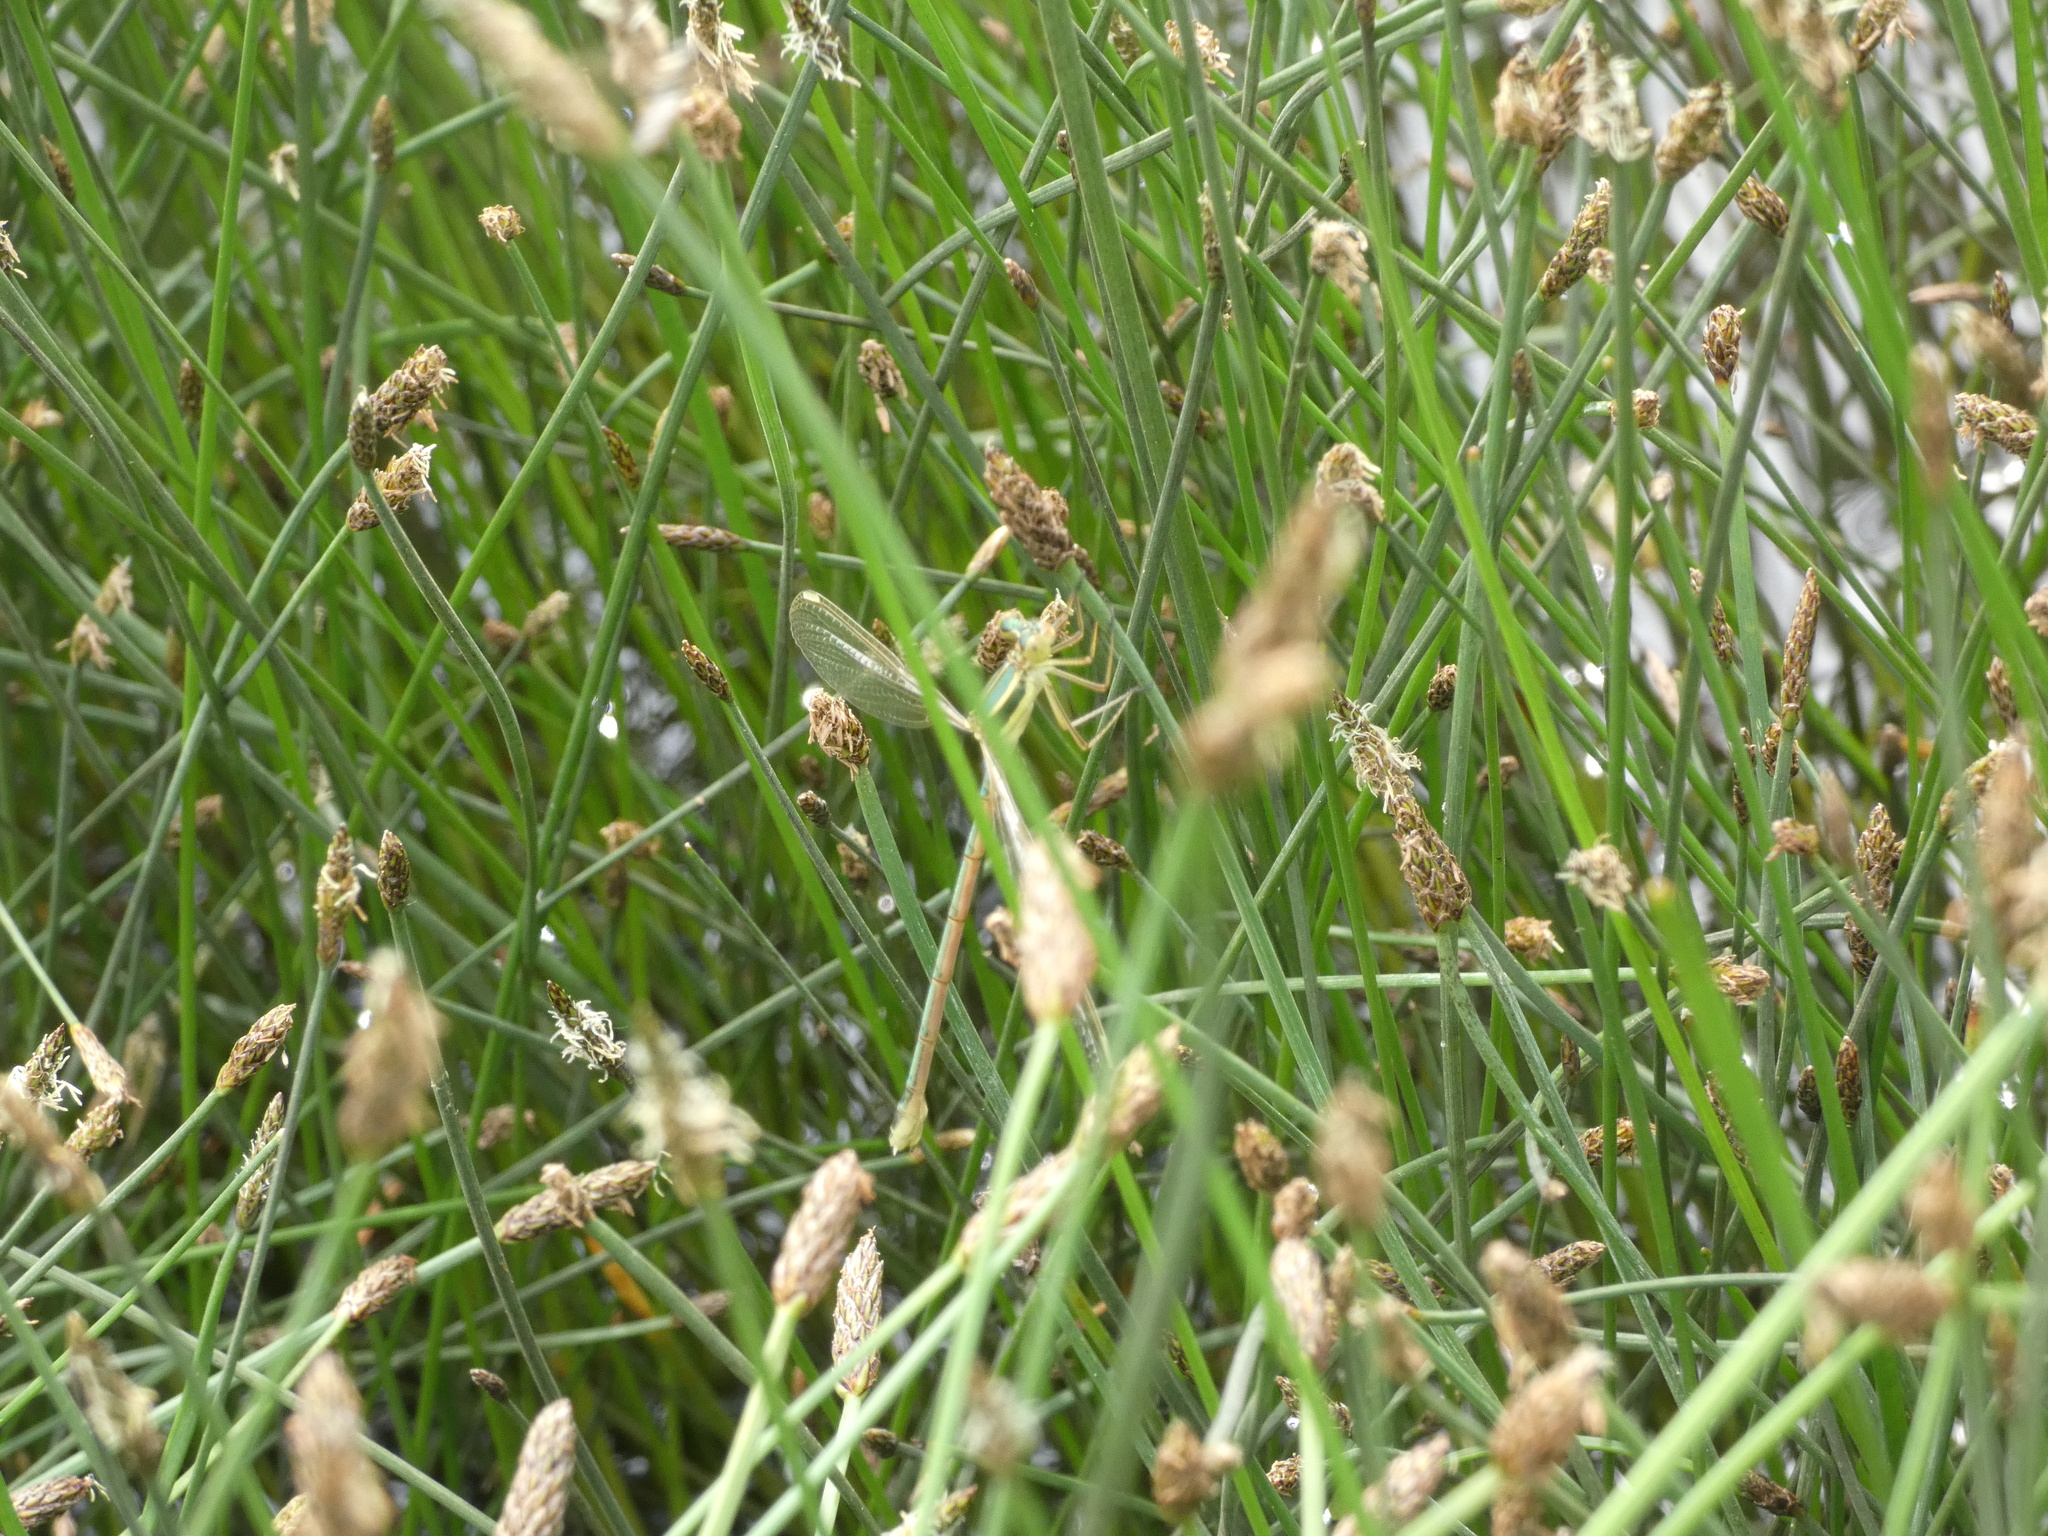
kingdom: Animalia
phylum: Arthropoda
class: Insecta
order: Odonata
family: Lestidae
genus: Lestes
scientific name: Lestes barbarus
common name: Migrant spreadwing
